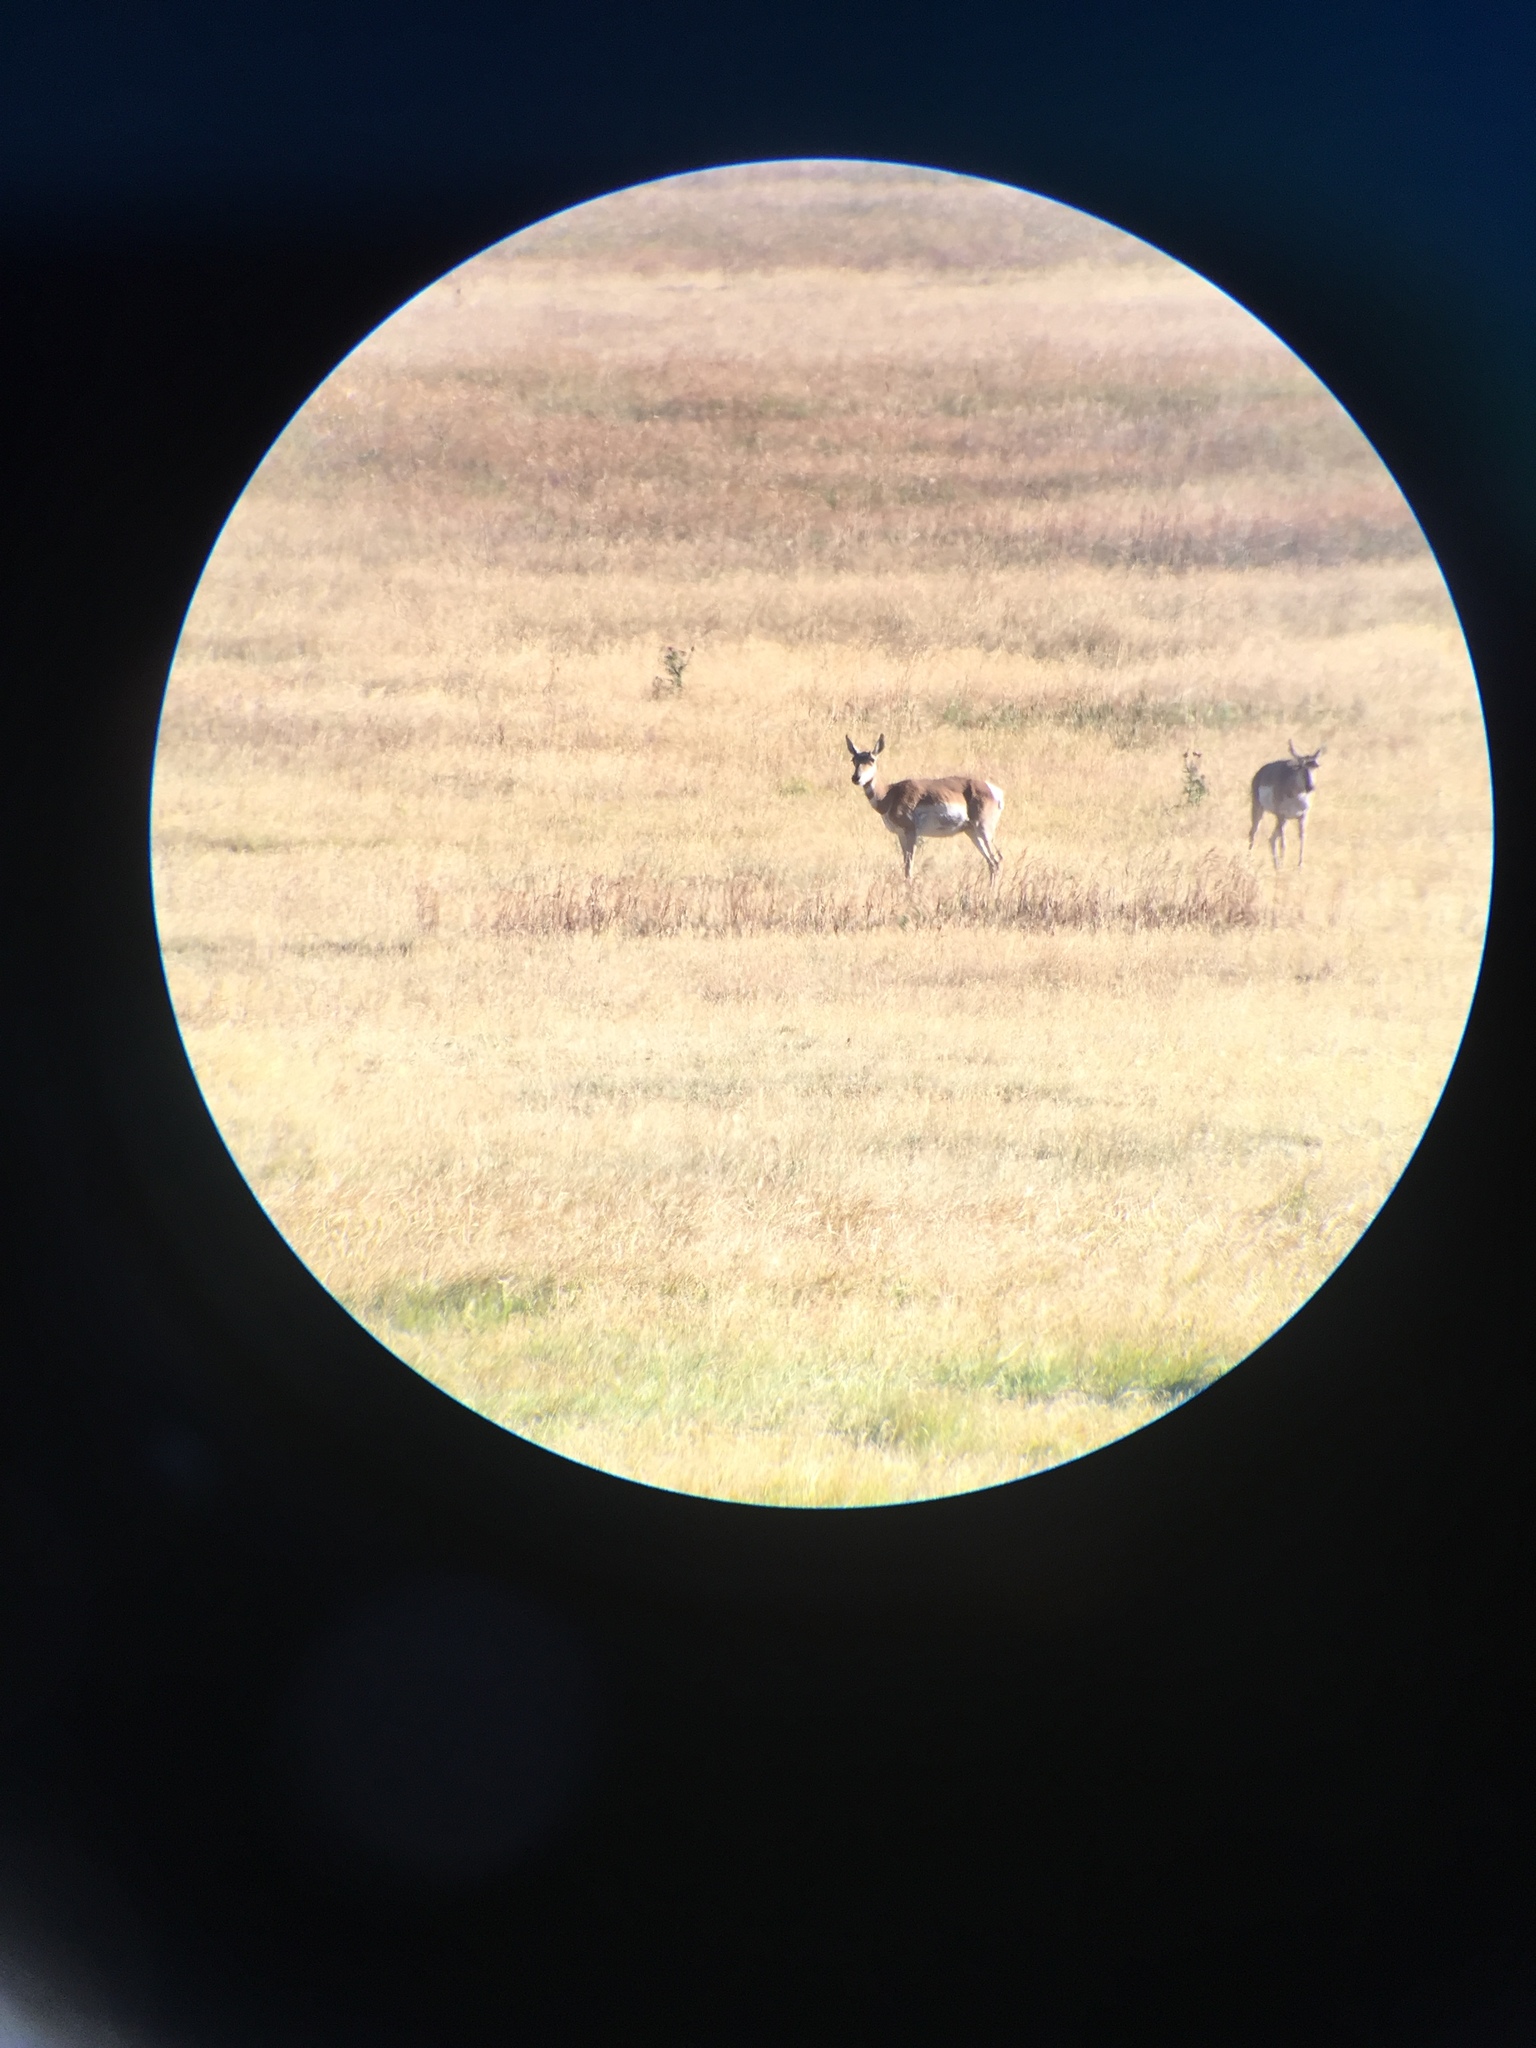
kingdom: Animalia
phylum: Chordata
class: Mammalia
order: Artiodactyla
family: Antilocapridae
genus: Antilocapra
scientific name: Antilocapra americana
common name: Pronghorn
